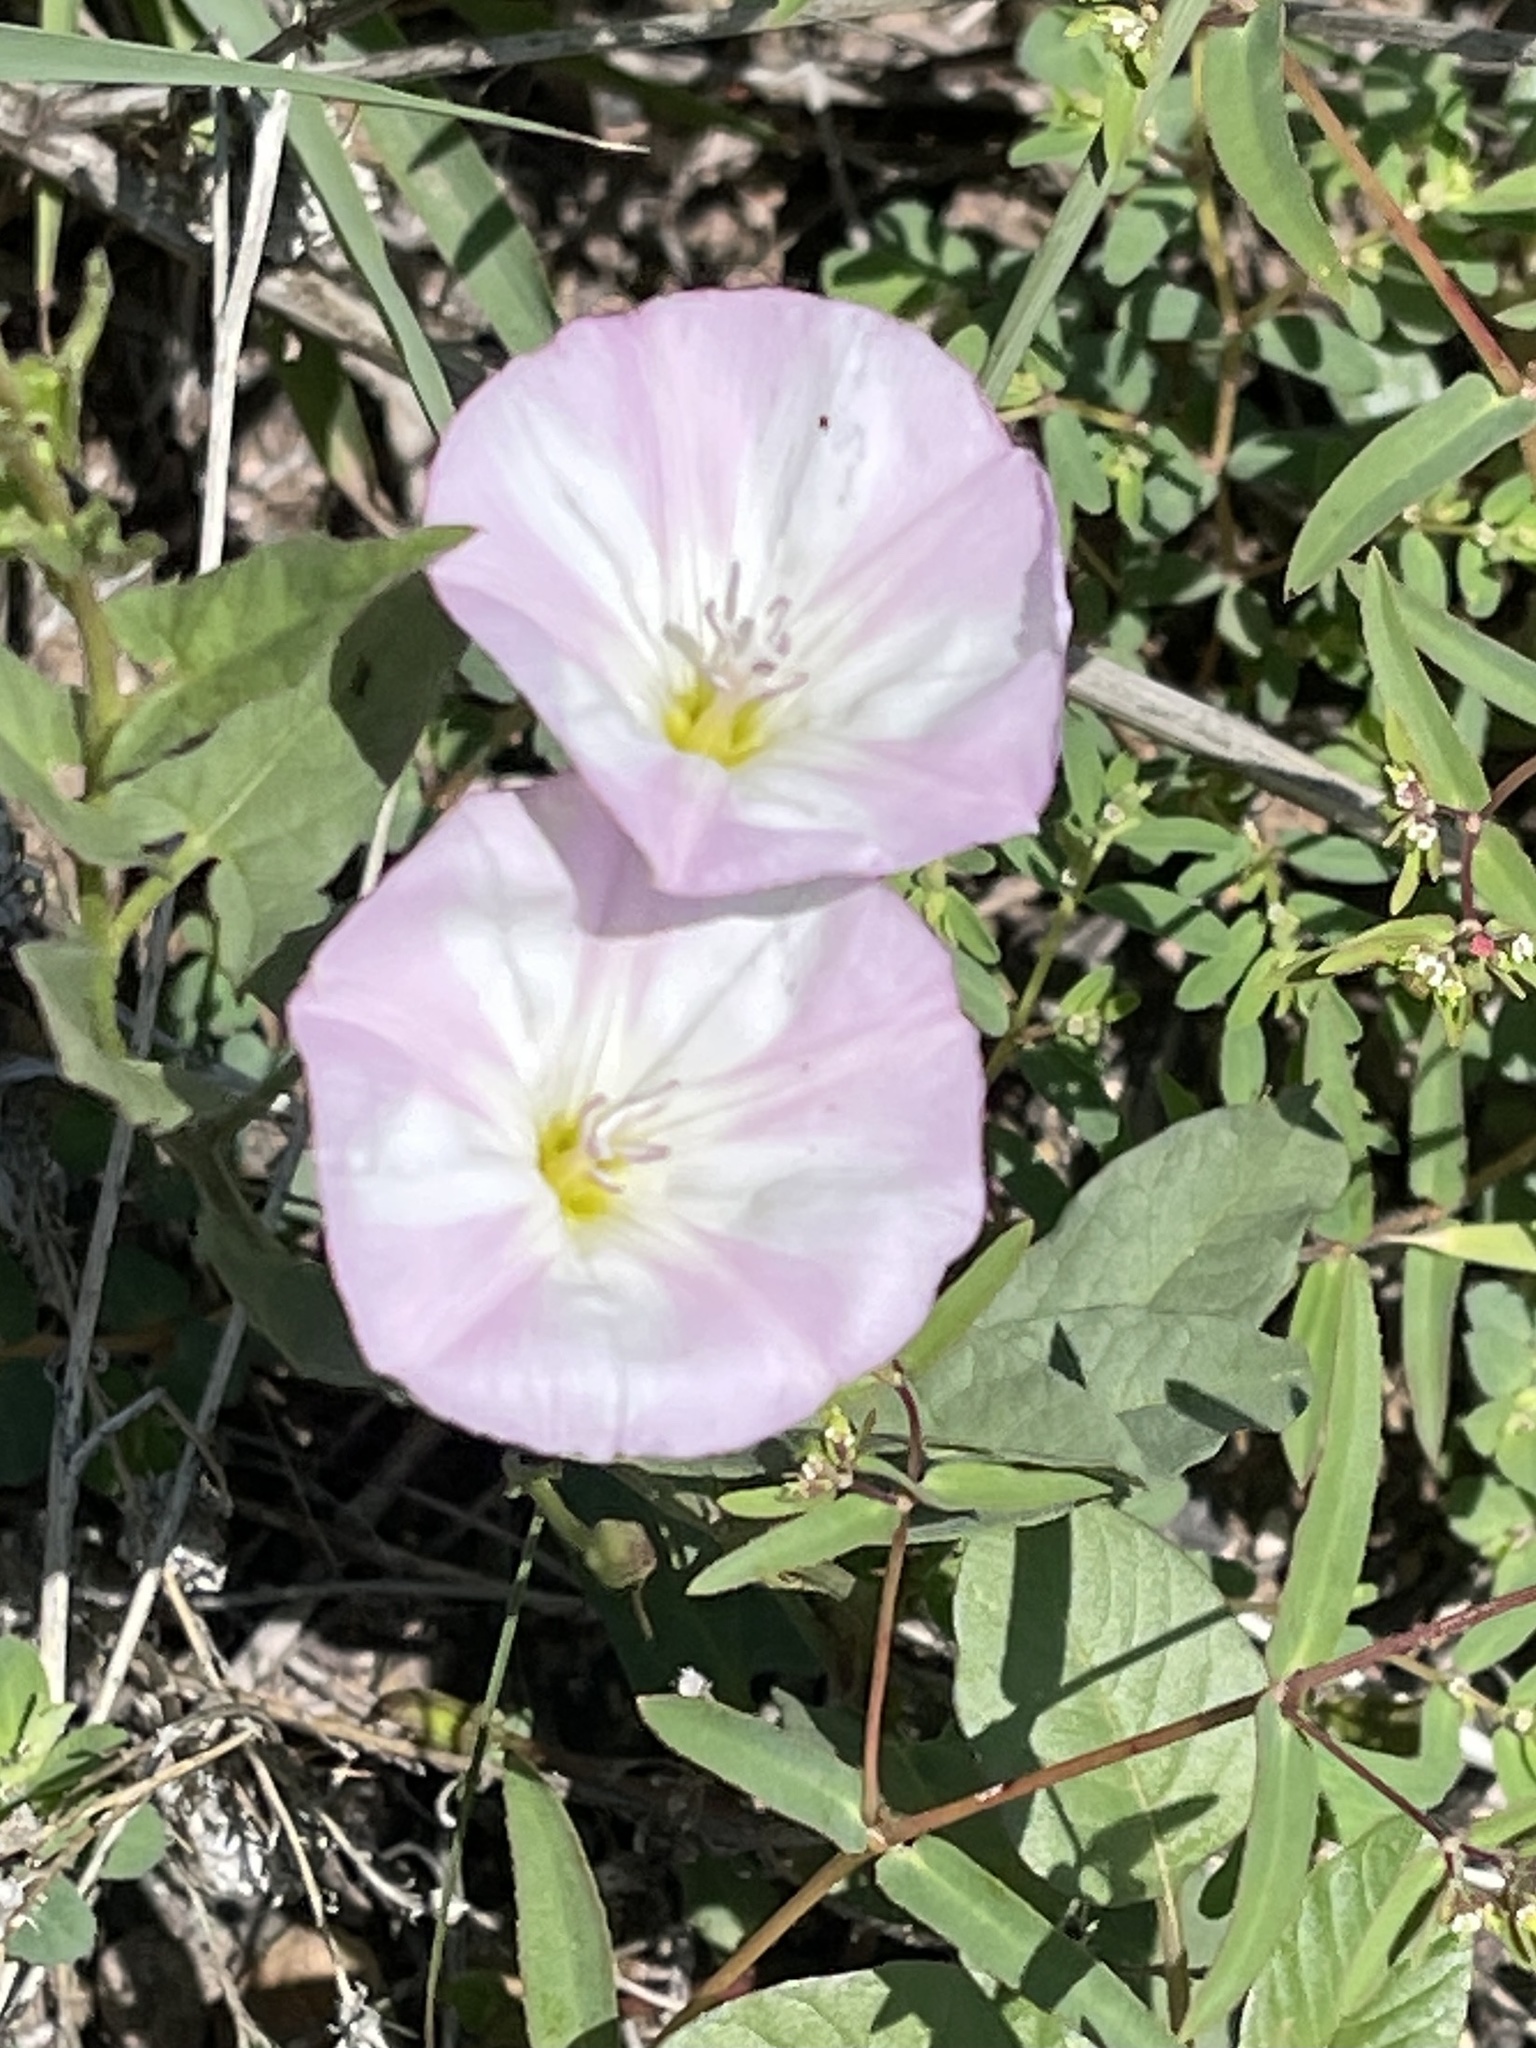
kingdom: Plantae
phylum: Tracheophyta
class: Magnoliopsida
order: Solanales
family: Convolvulaceae
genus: Convolvulus
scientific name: Convolvulus arvensis
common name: Field bindweed
